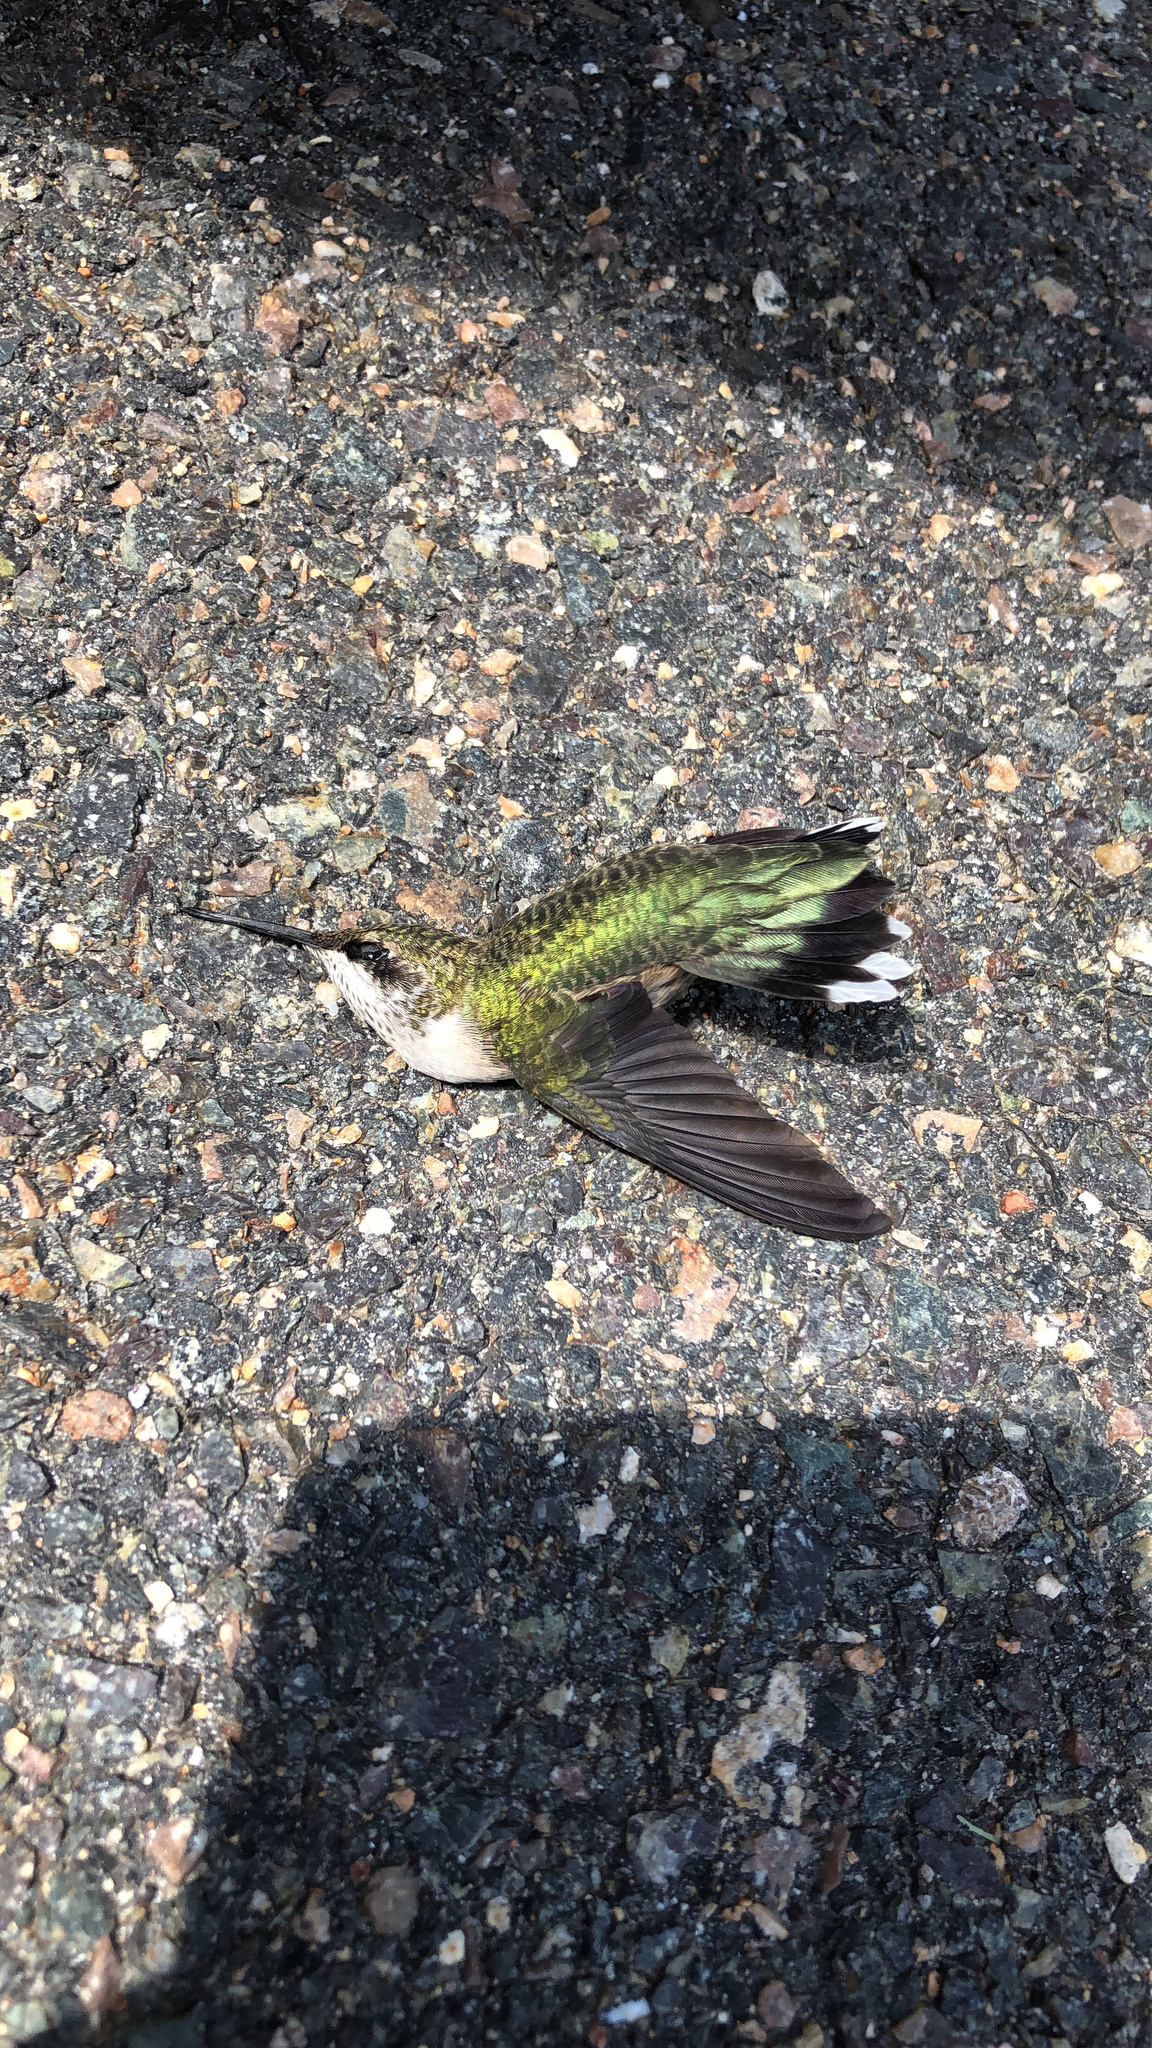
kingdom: Animalia
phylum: Chordata
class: Aves
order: Apodiformes
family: Trochilidae
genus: Archilochus
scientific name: Archilochus colubris
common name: Ruby-throated hummingbird
